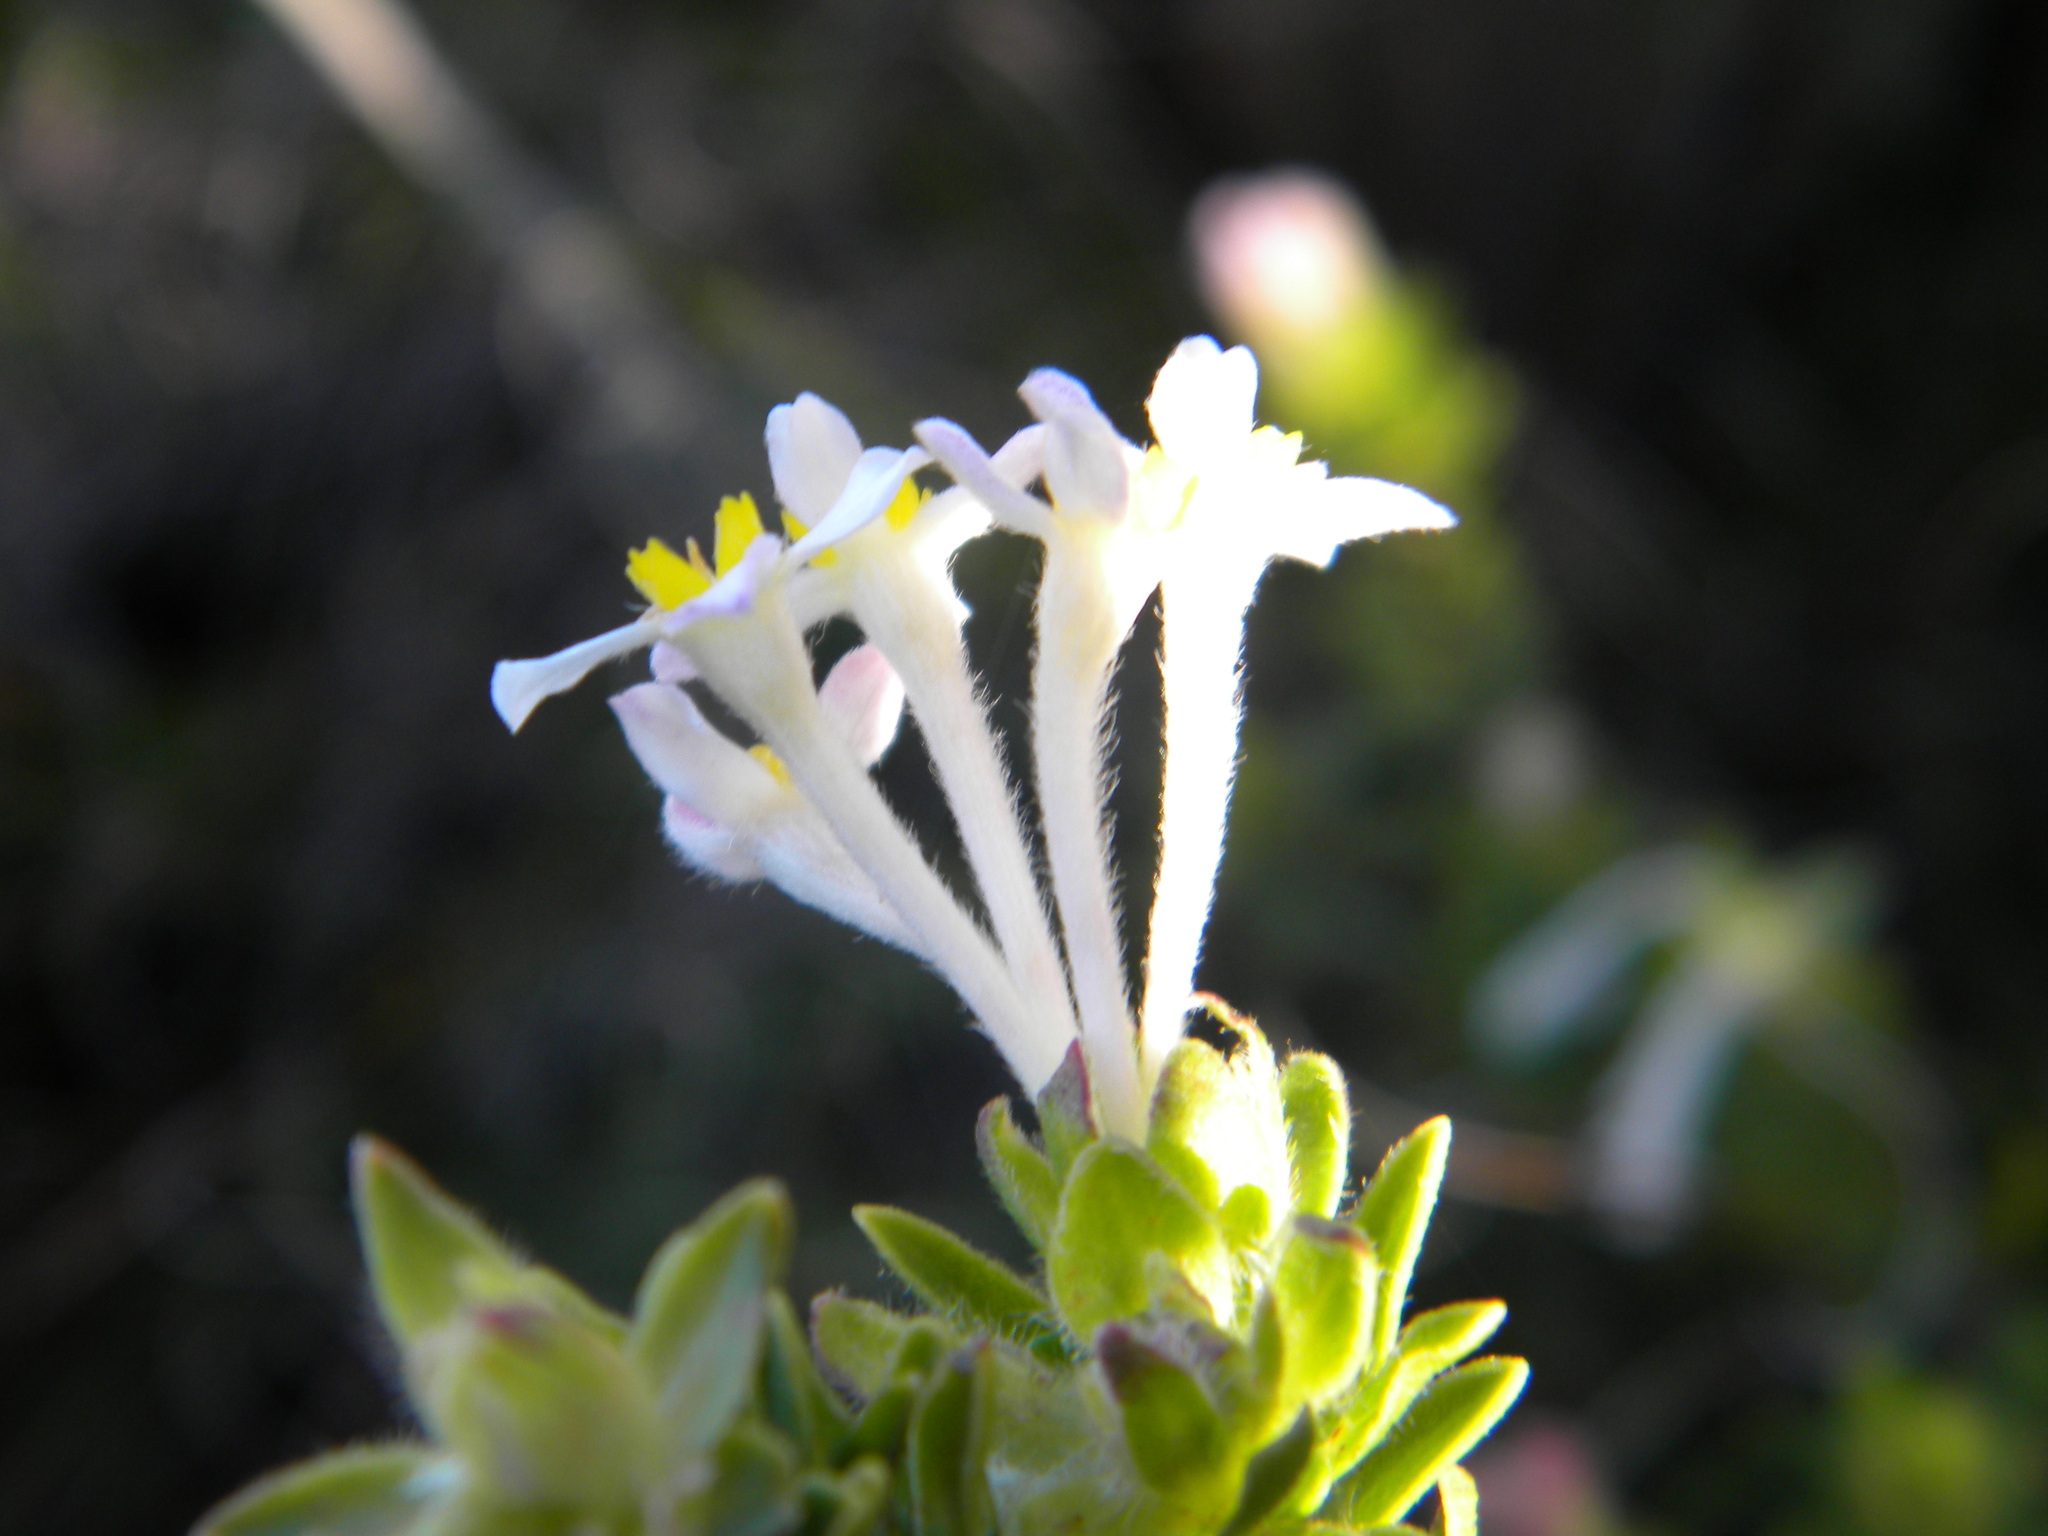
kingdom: Plantae
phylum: Tracheophyta
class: Magnoliopsida
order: Malvales
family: Thymelaeaceae
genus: Gnidia
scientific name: Gnidia tomentosa
